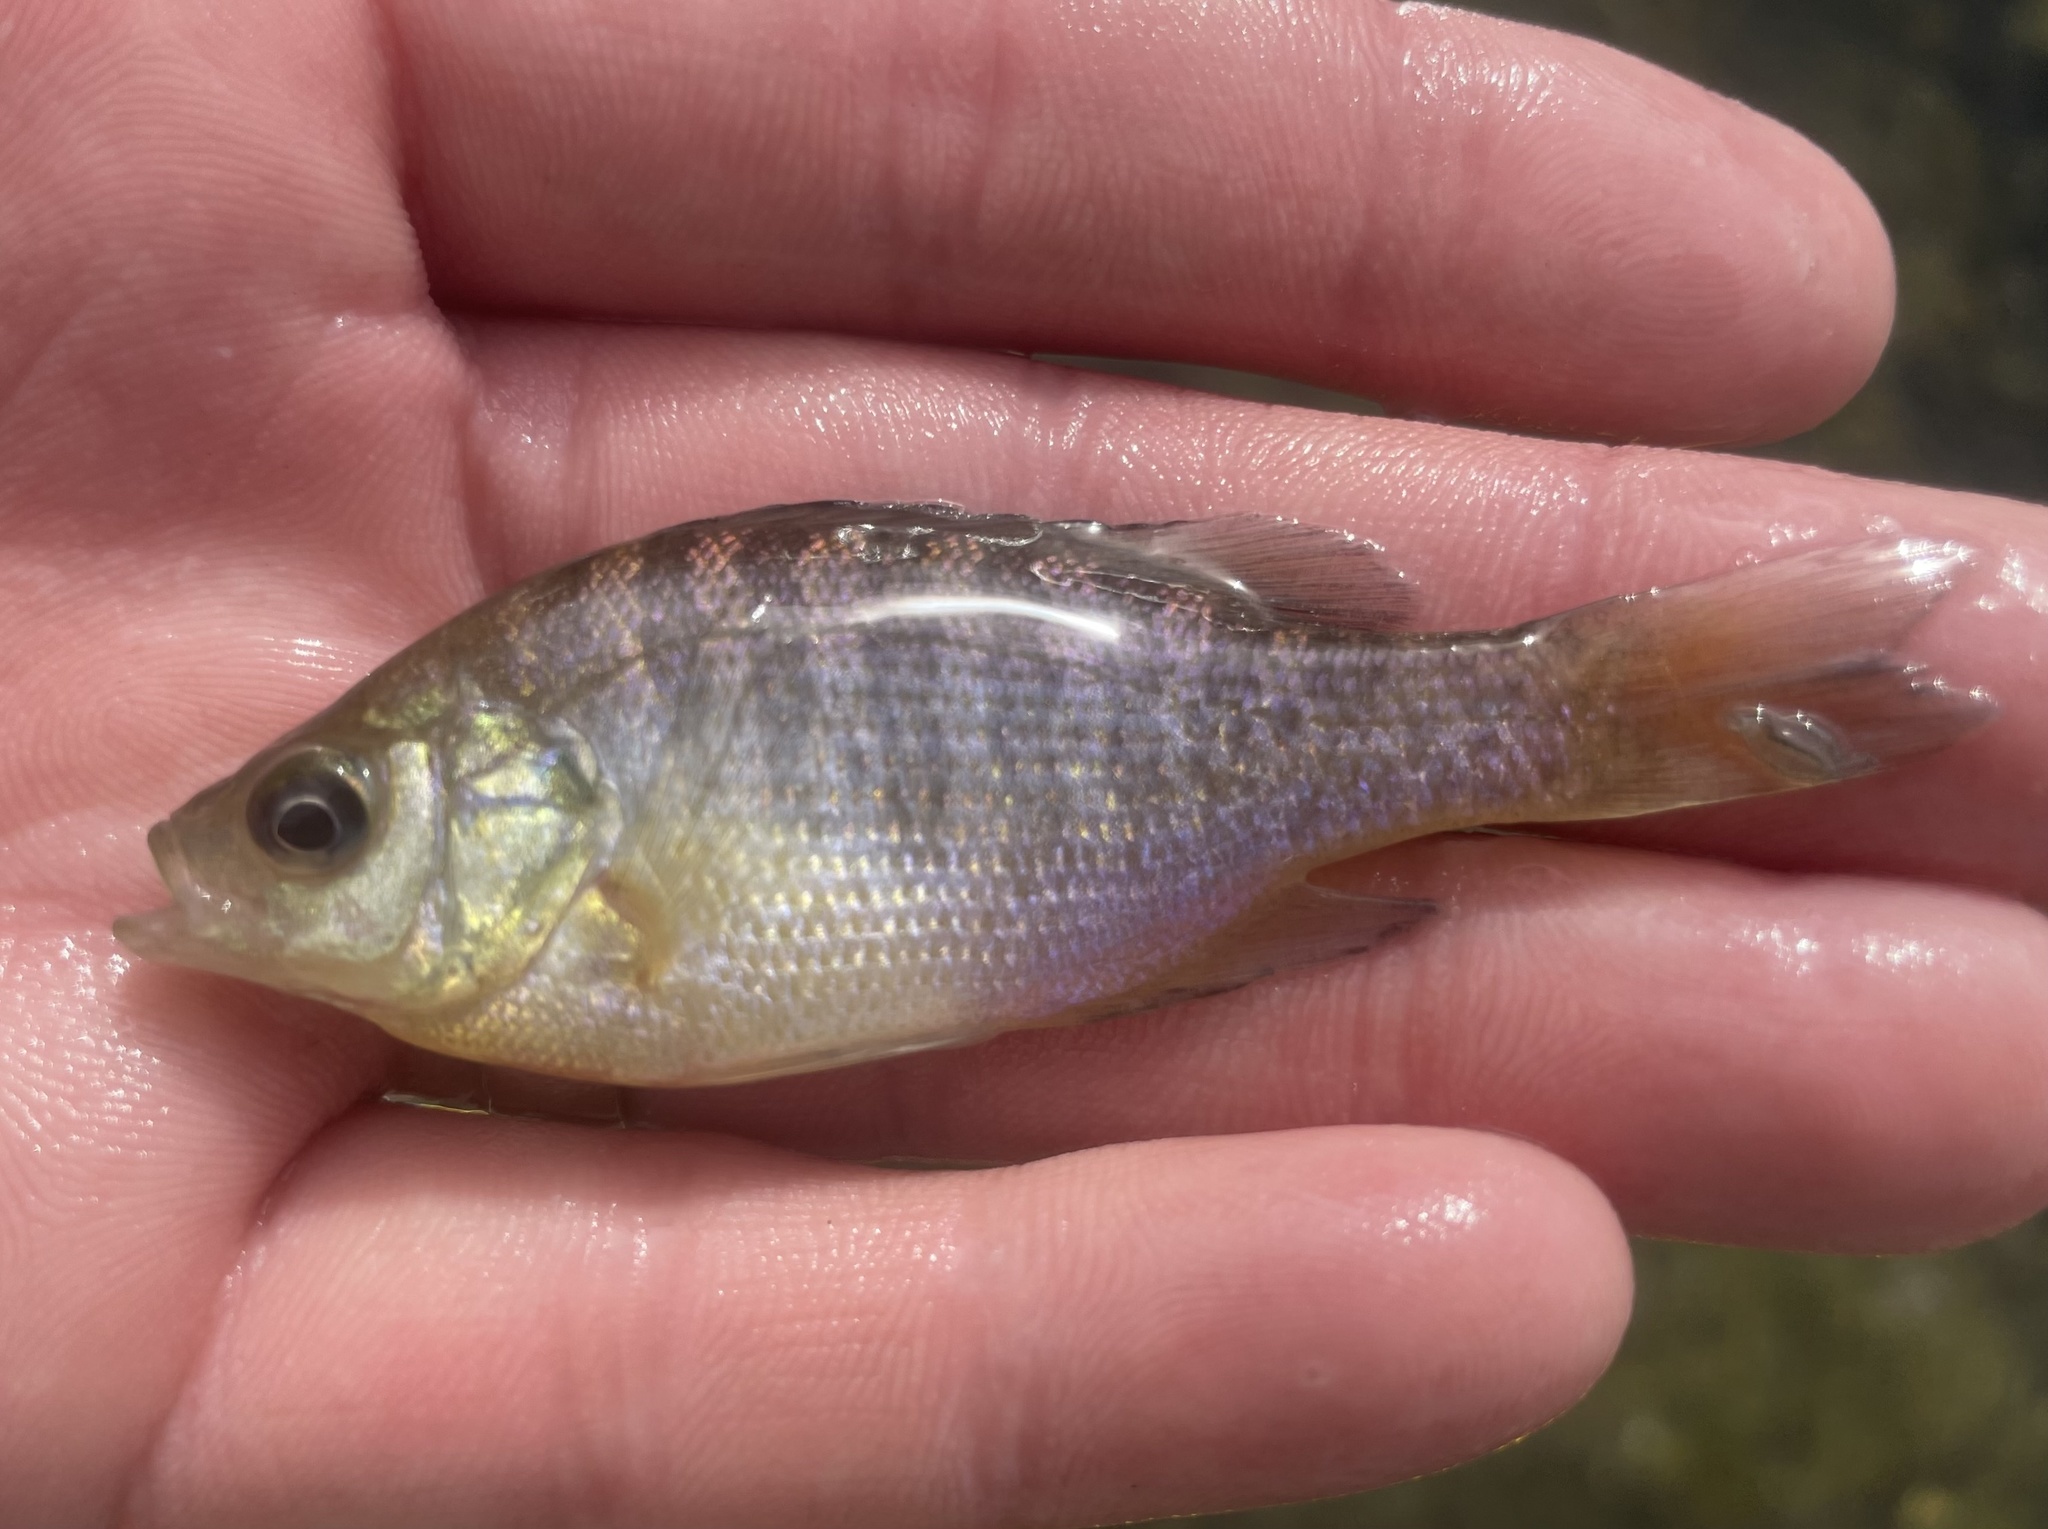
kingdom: Animalia
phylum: Chordata
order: Perciformes
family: Centrarchidae
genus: Lepomis
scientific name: Lepomis macrochirus
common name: Bluegill
